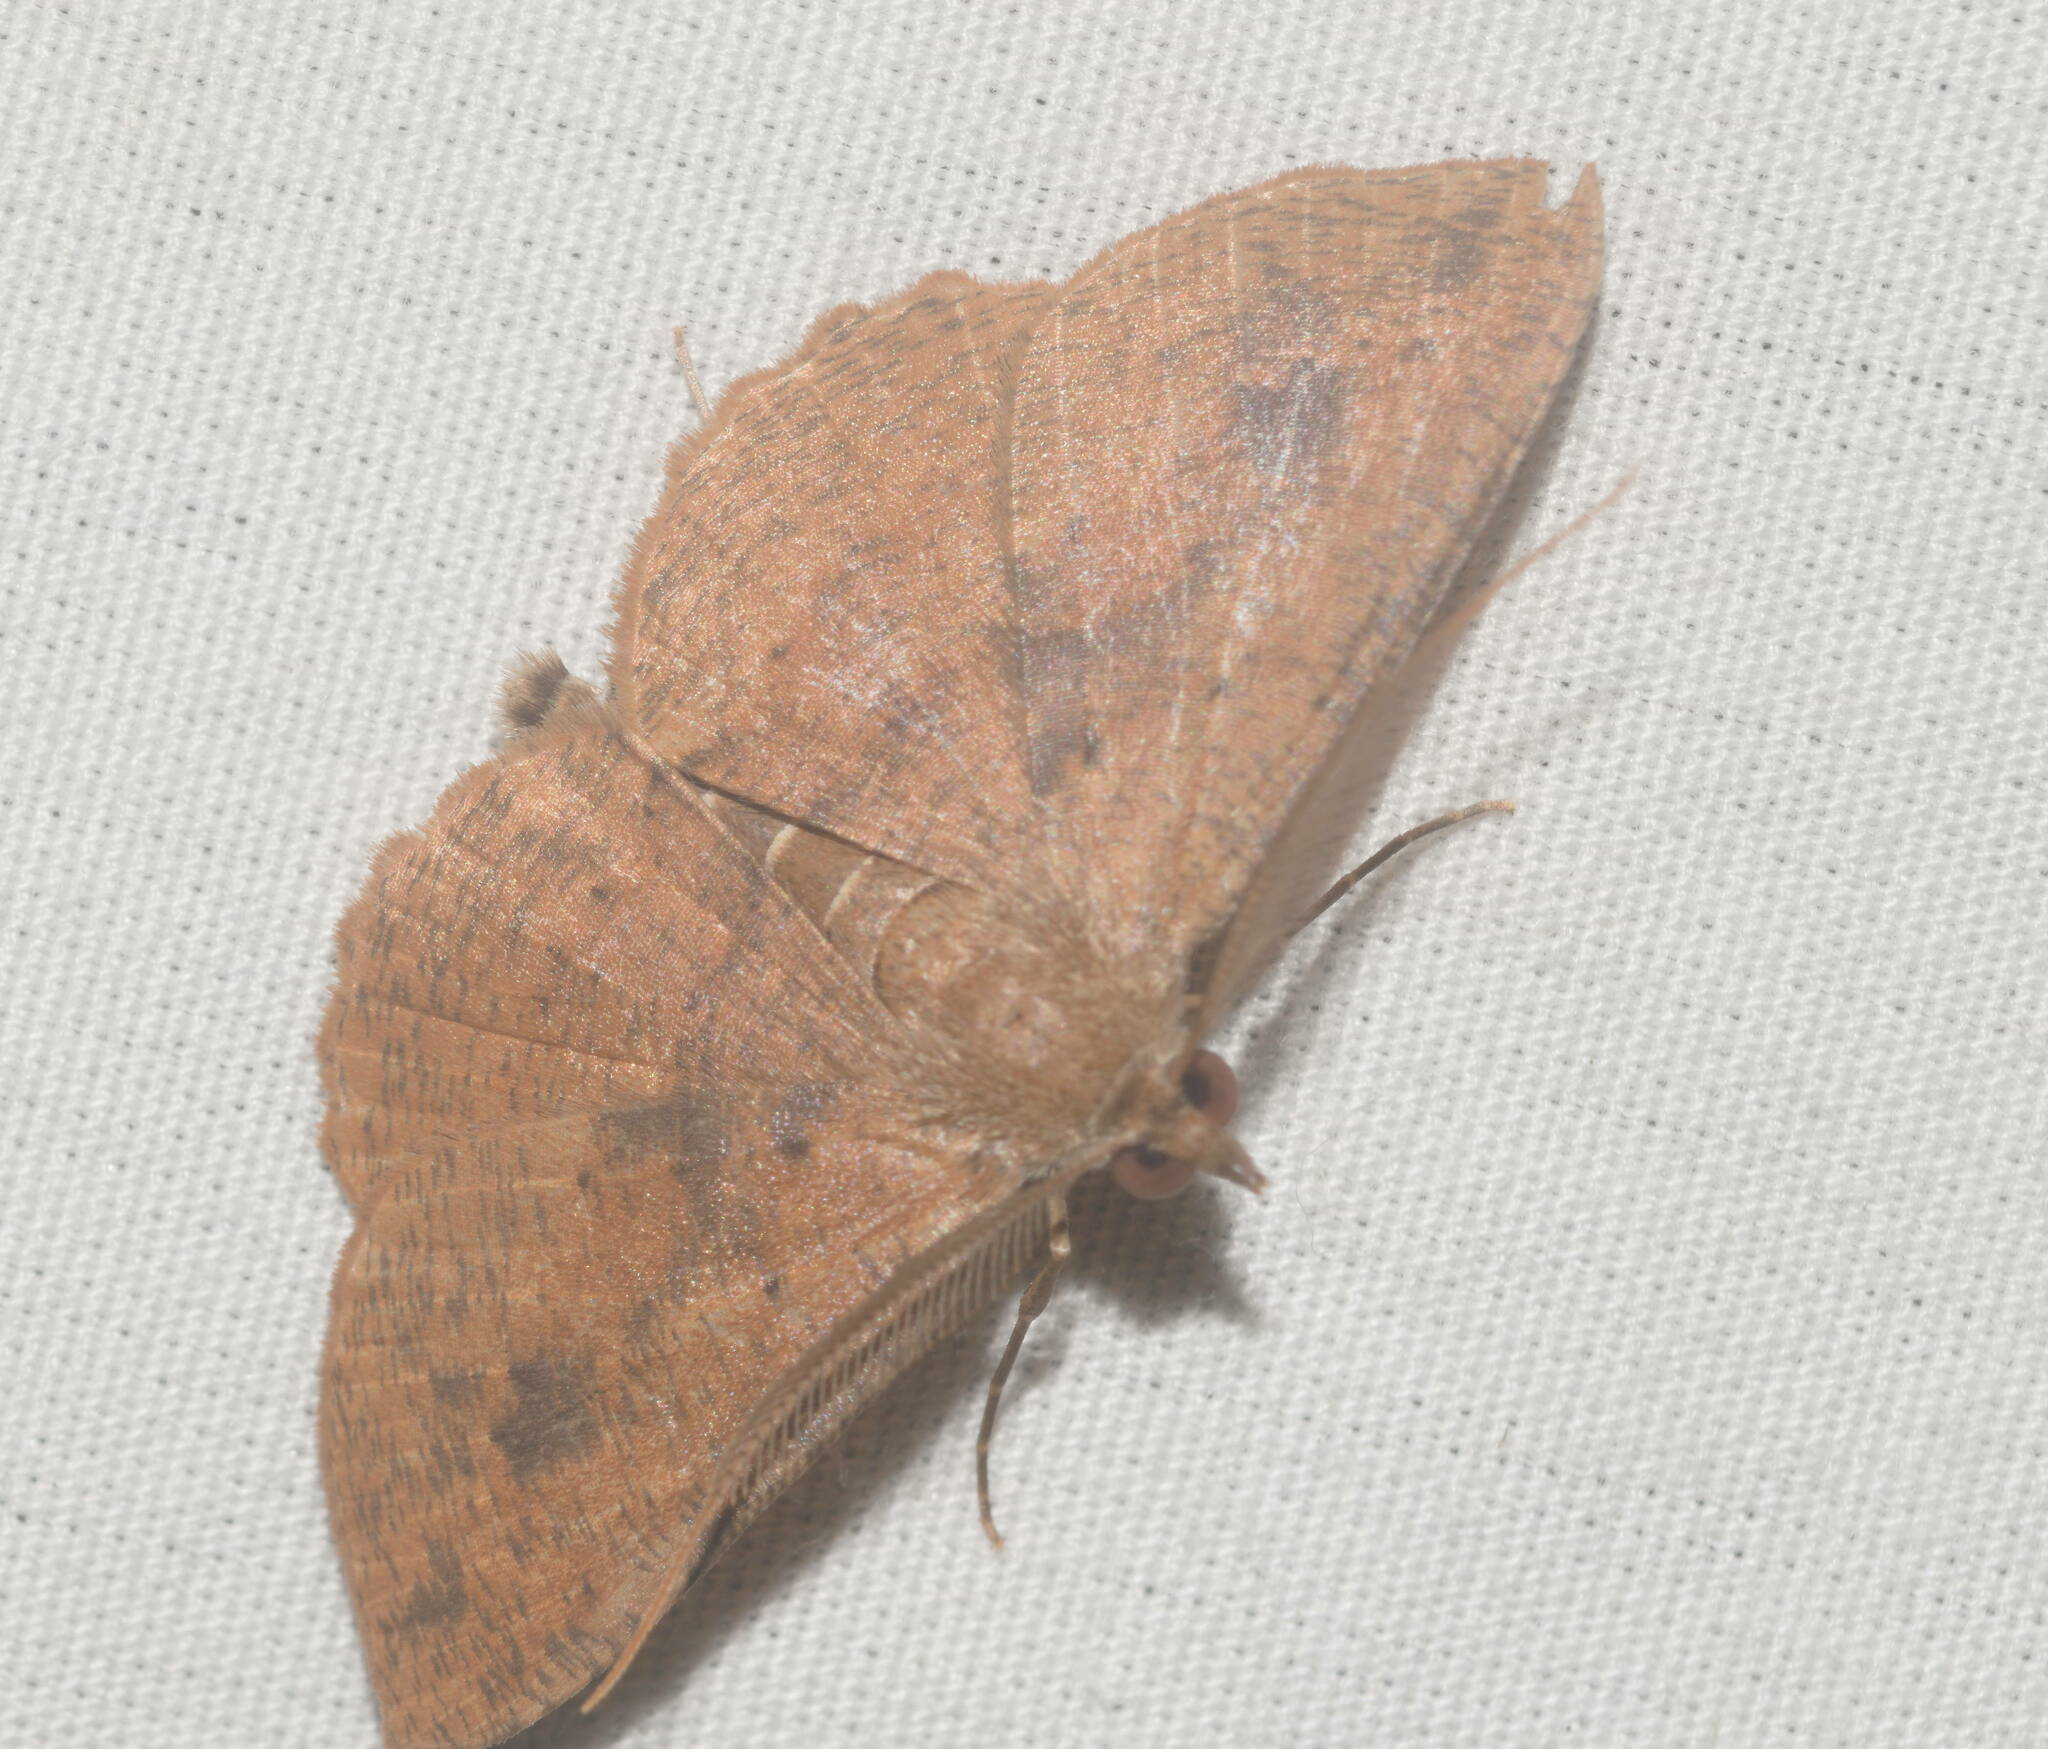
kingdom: Animalia
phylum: Arthropoda
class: Insecta
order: Lepidoptera
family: Geometridae
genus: Scotorythra
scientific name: Scotorythra corticea
